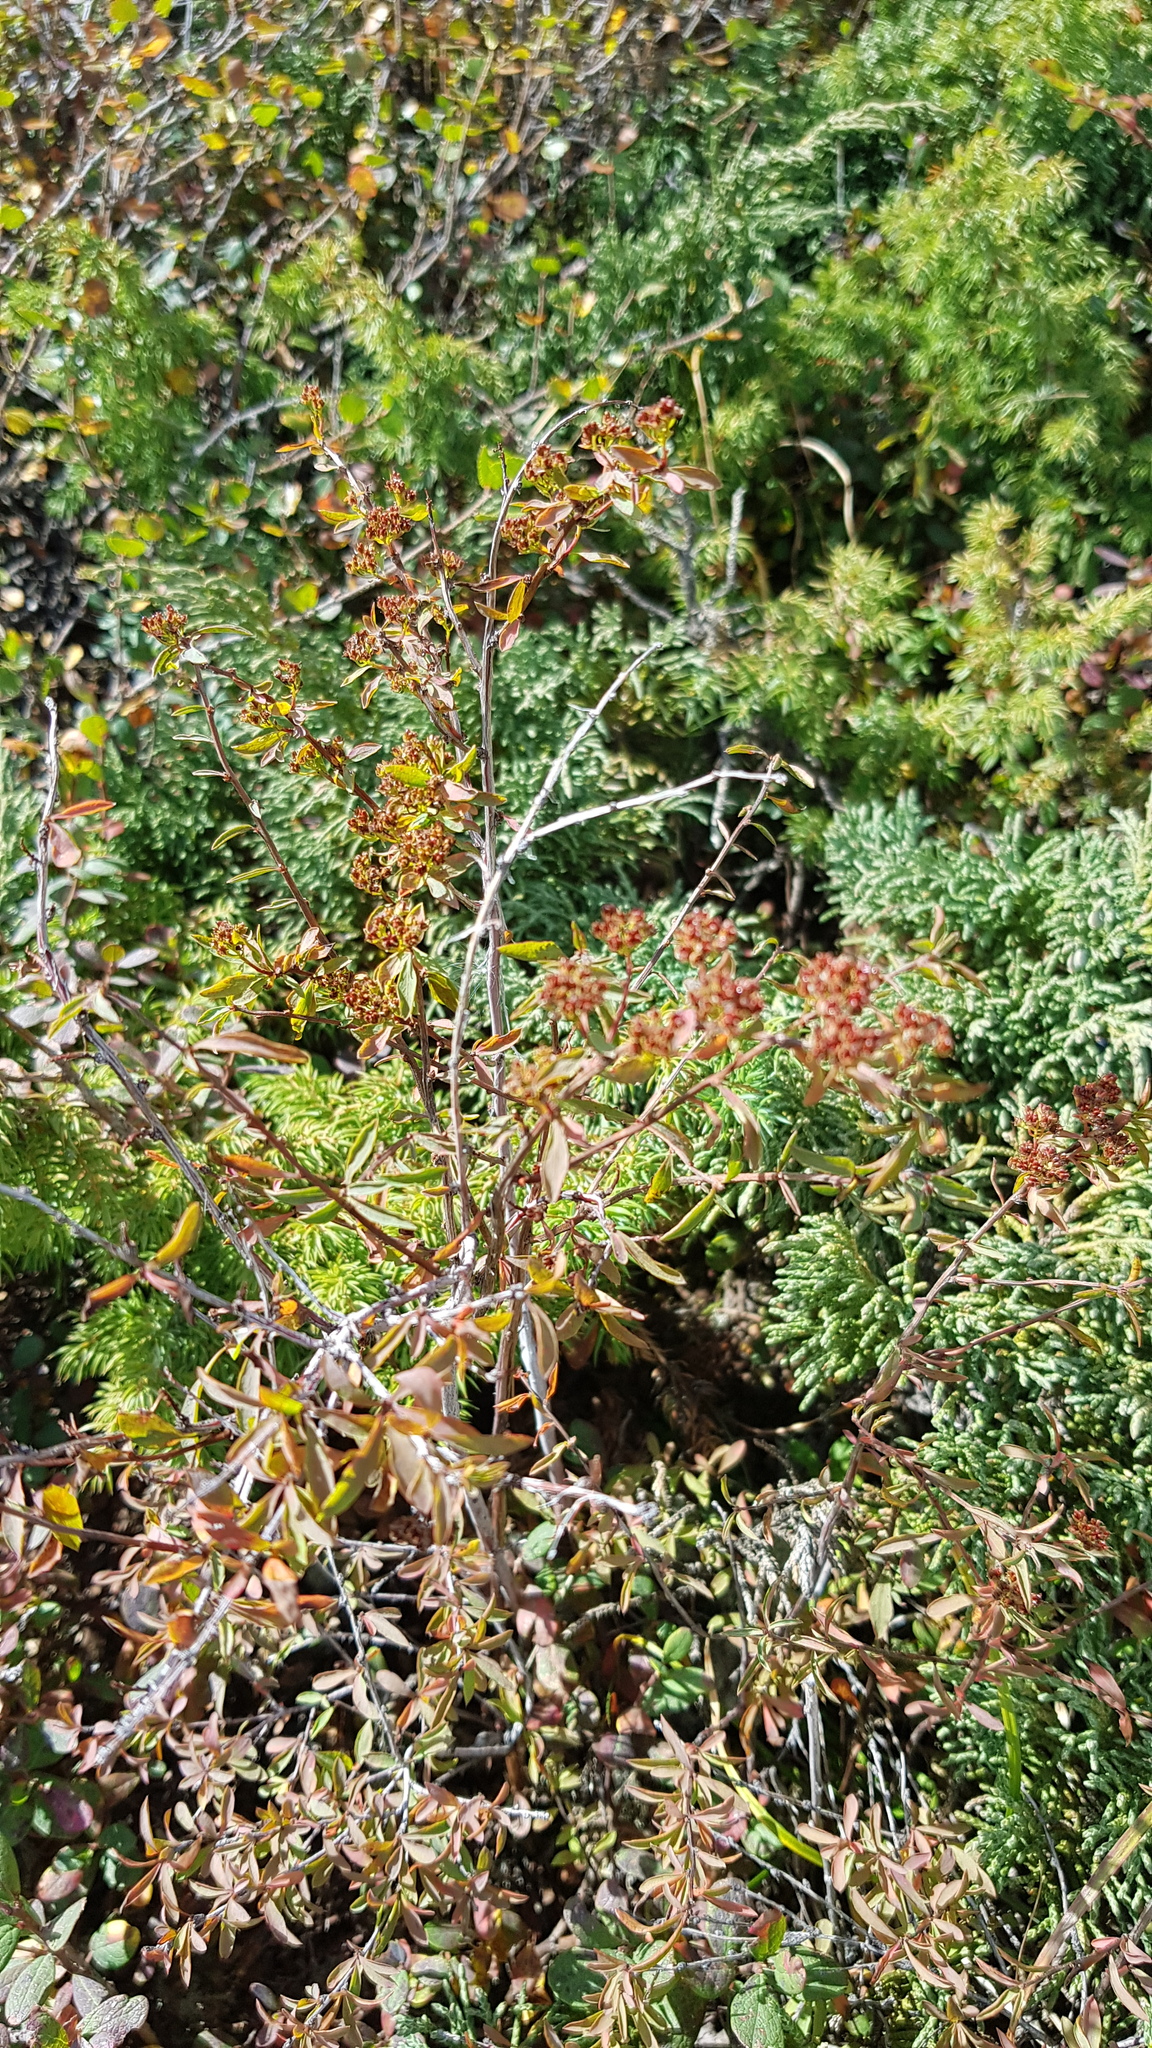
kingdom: Plantae
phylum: Tracheophyta
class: Magnoliopsida
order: Rosales
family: Rosaceae
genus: Spiraea
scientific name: Spiraea alpina
